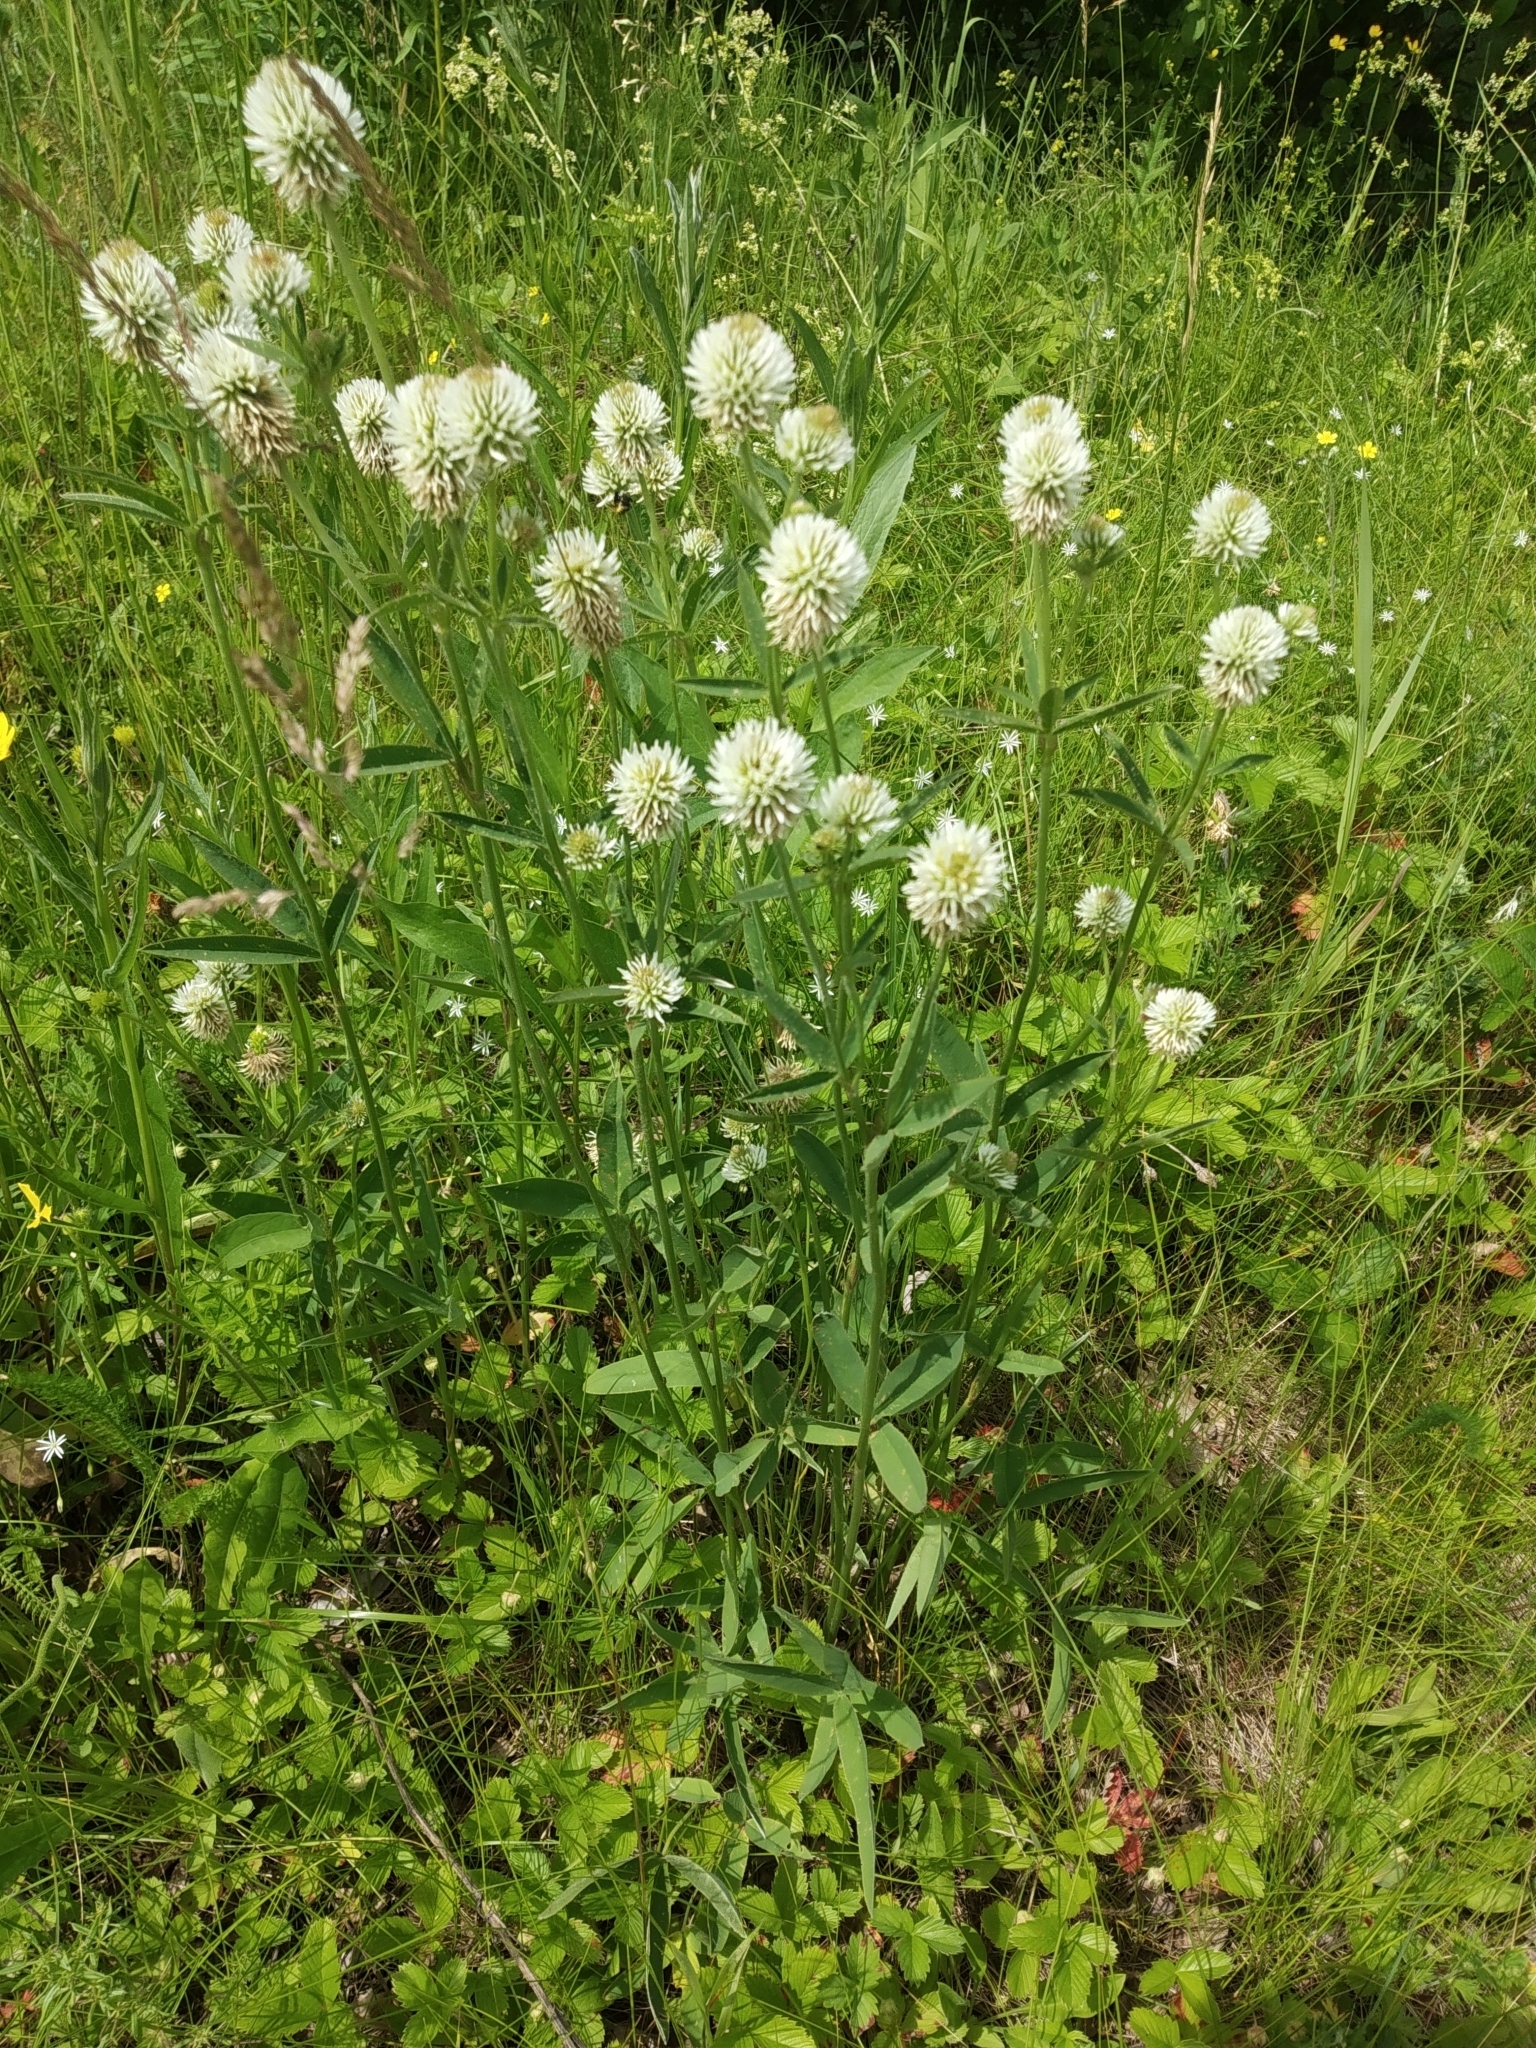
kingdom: Plantae
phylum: Tracheophyta
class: Magnoliopsida
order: Fabales
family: Fabaceae
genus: Trifolium
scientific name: Trifolium montanum
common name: Mountain clover
